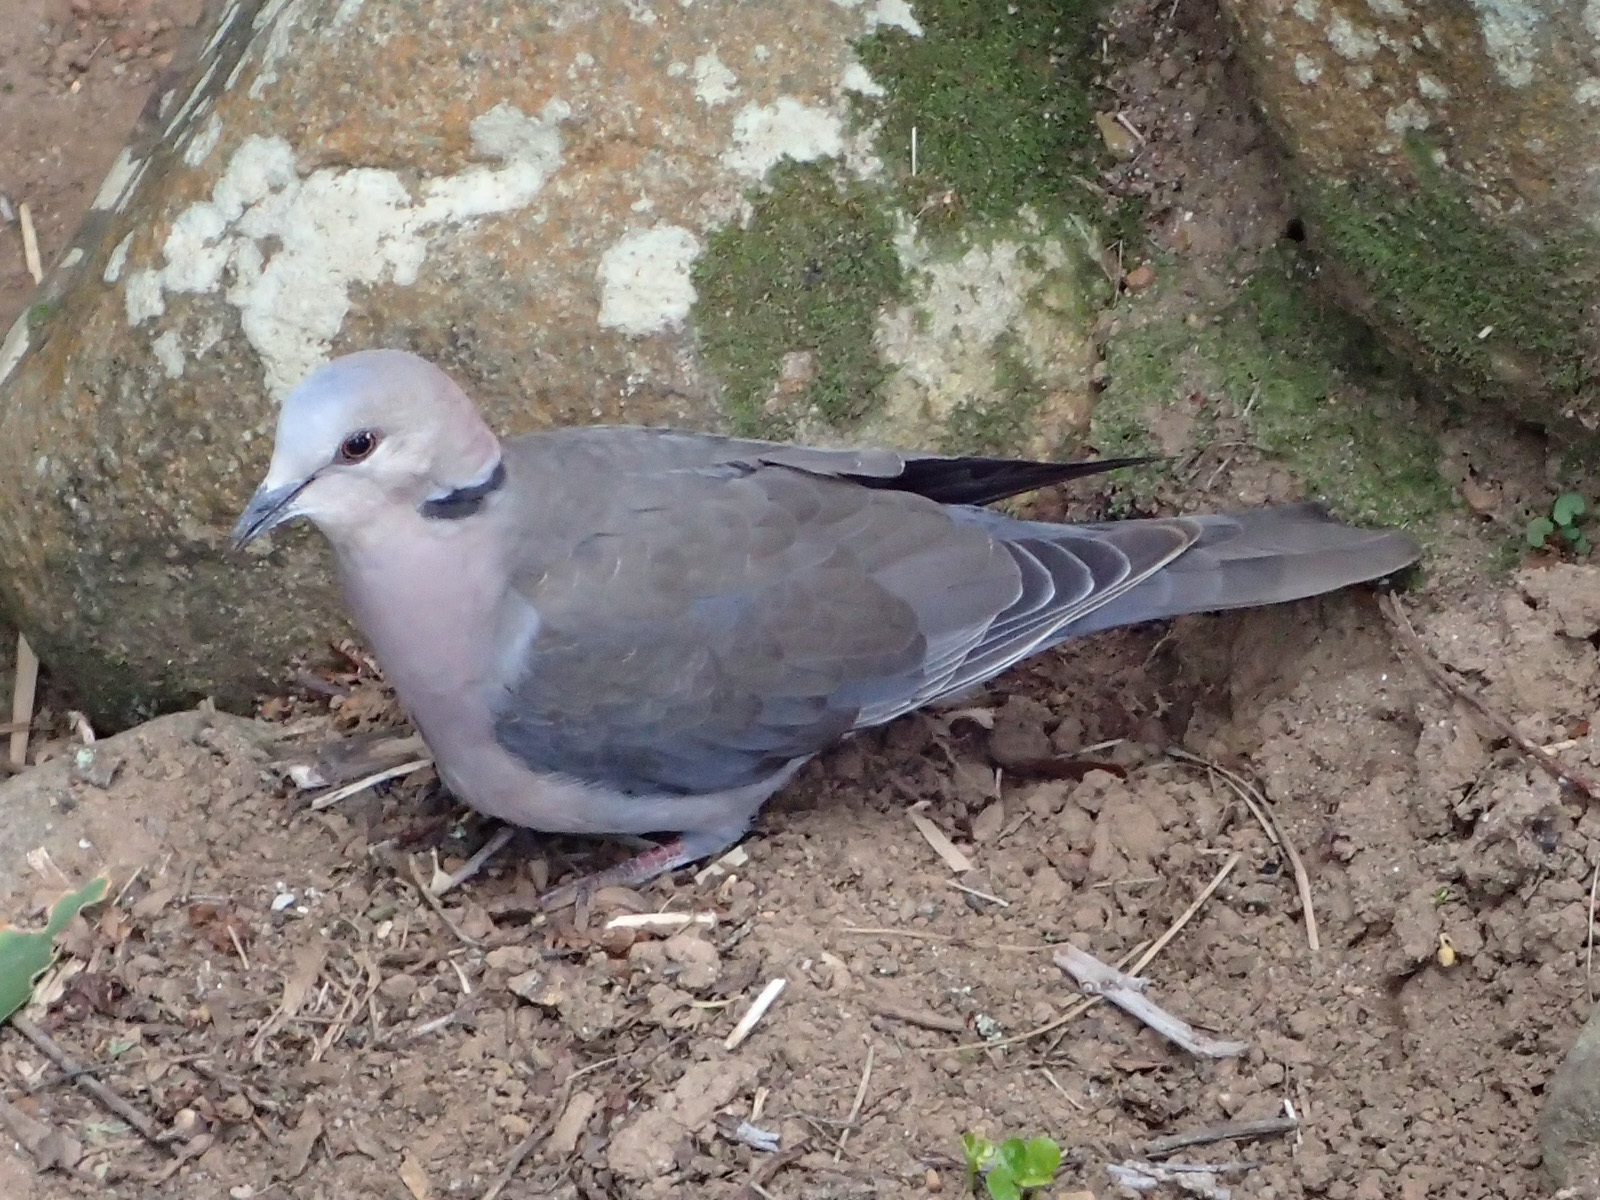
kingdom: Animalia
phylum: Chordata
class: Aves
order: Columbiformes
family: Columbidae
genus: Streptopelia
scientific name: Streptopelia semitorquata
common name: Red-eyed dove
